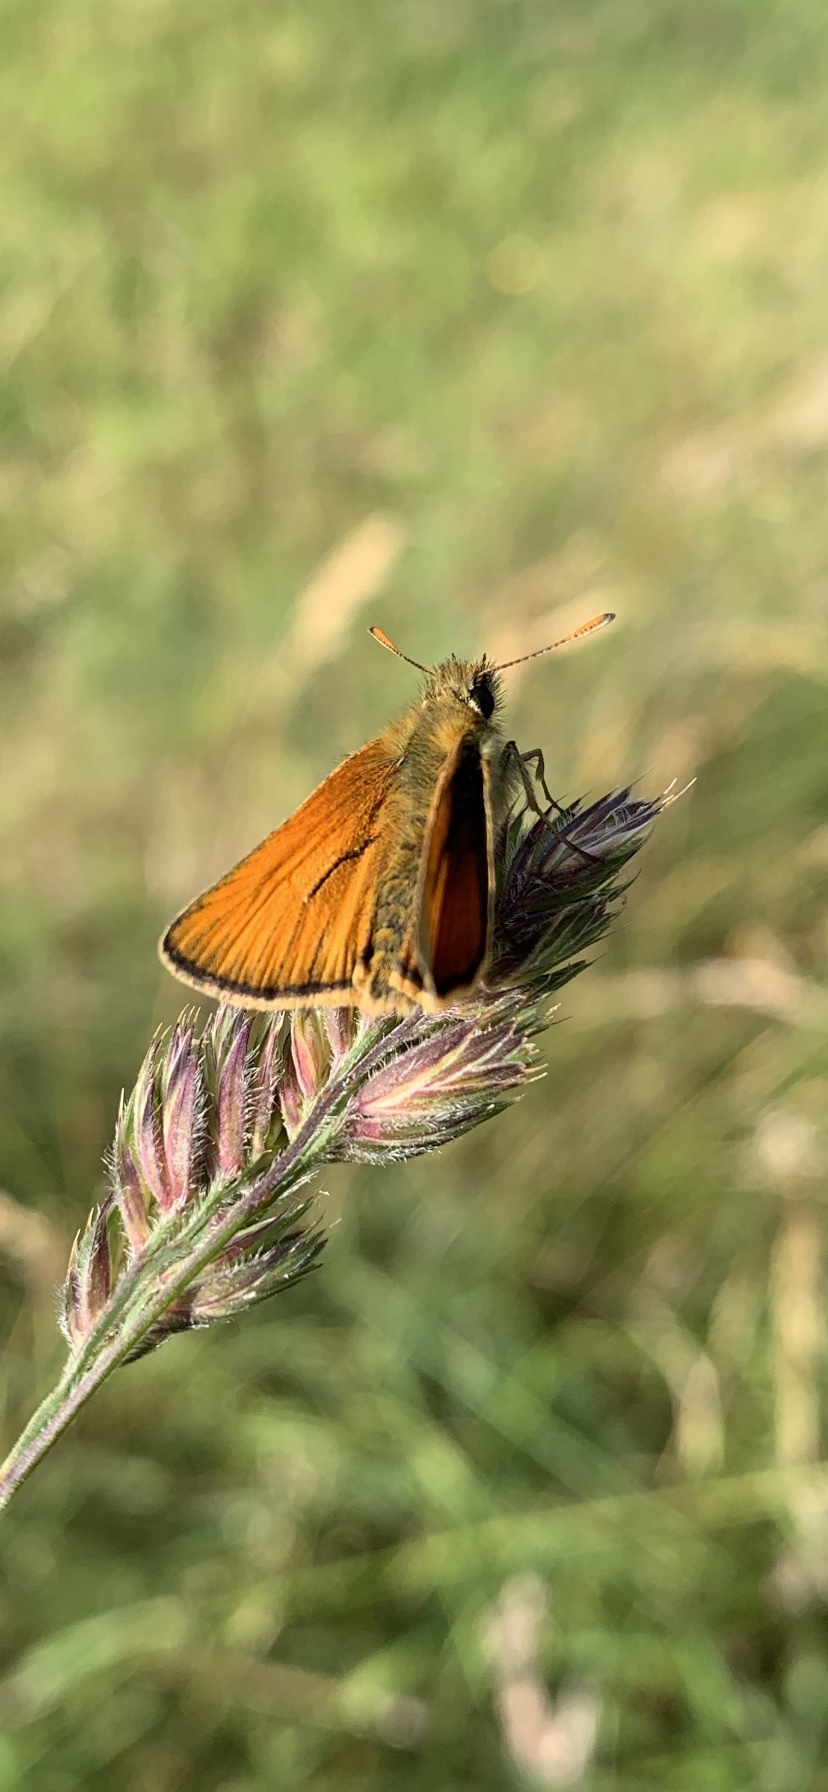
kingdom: Animalia
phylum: Arthropoda
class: Insecta
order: Lepidoptera
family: Hesperiidae
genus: Thymelicus
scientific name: Thymelicus sylvestris
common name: Small skipper
